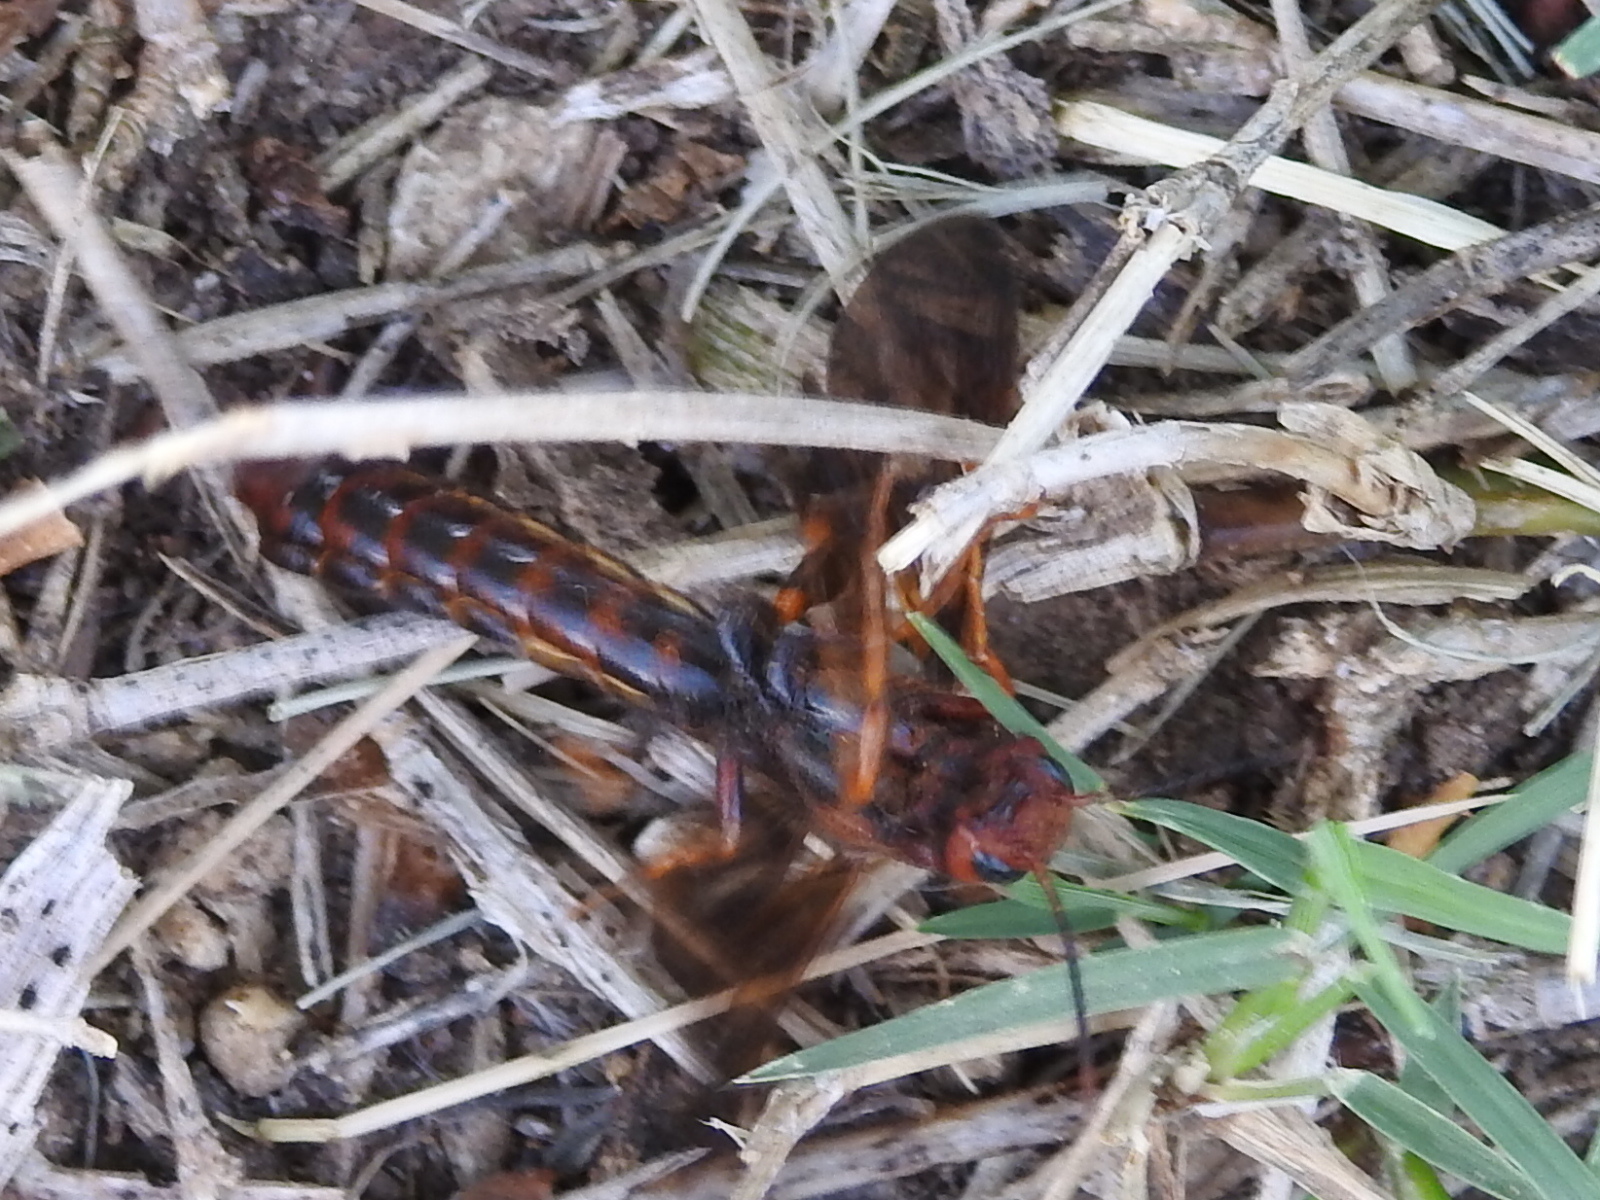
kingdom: Animalia
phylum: Arthropoda
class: Insecta
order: Hymenoptera
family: Siricidae
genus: Tremex
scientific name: Tremex columba
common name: Wasp
